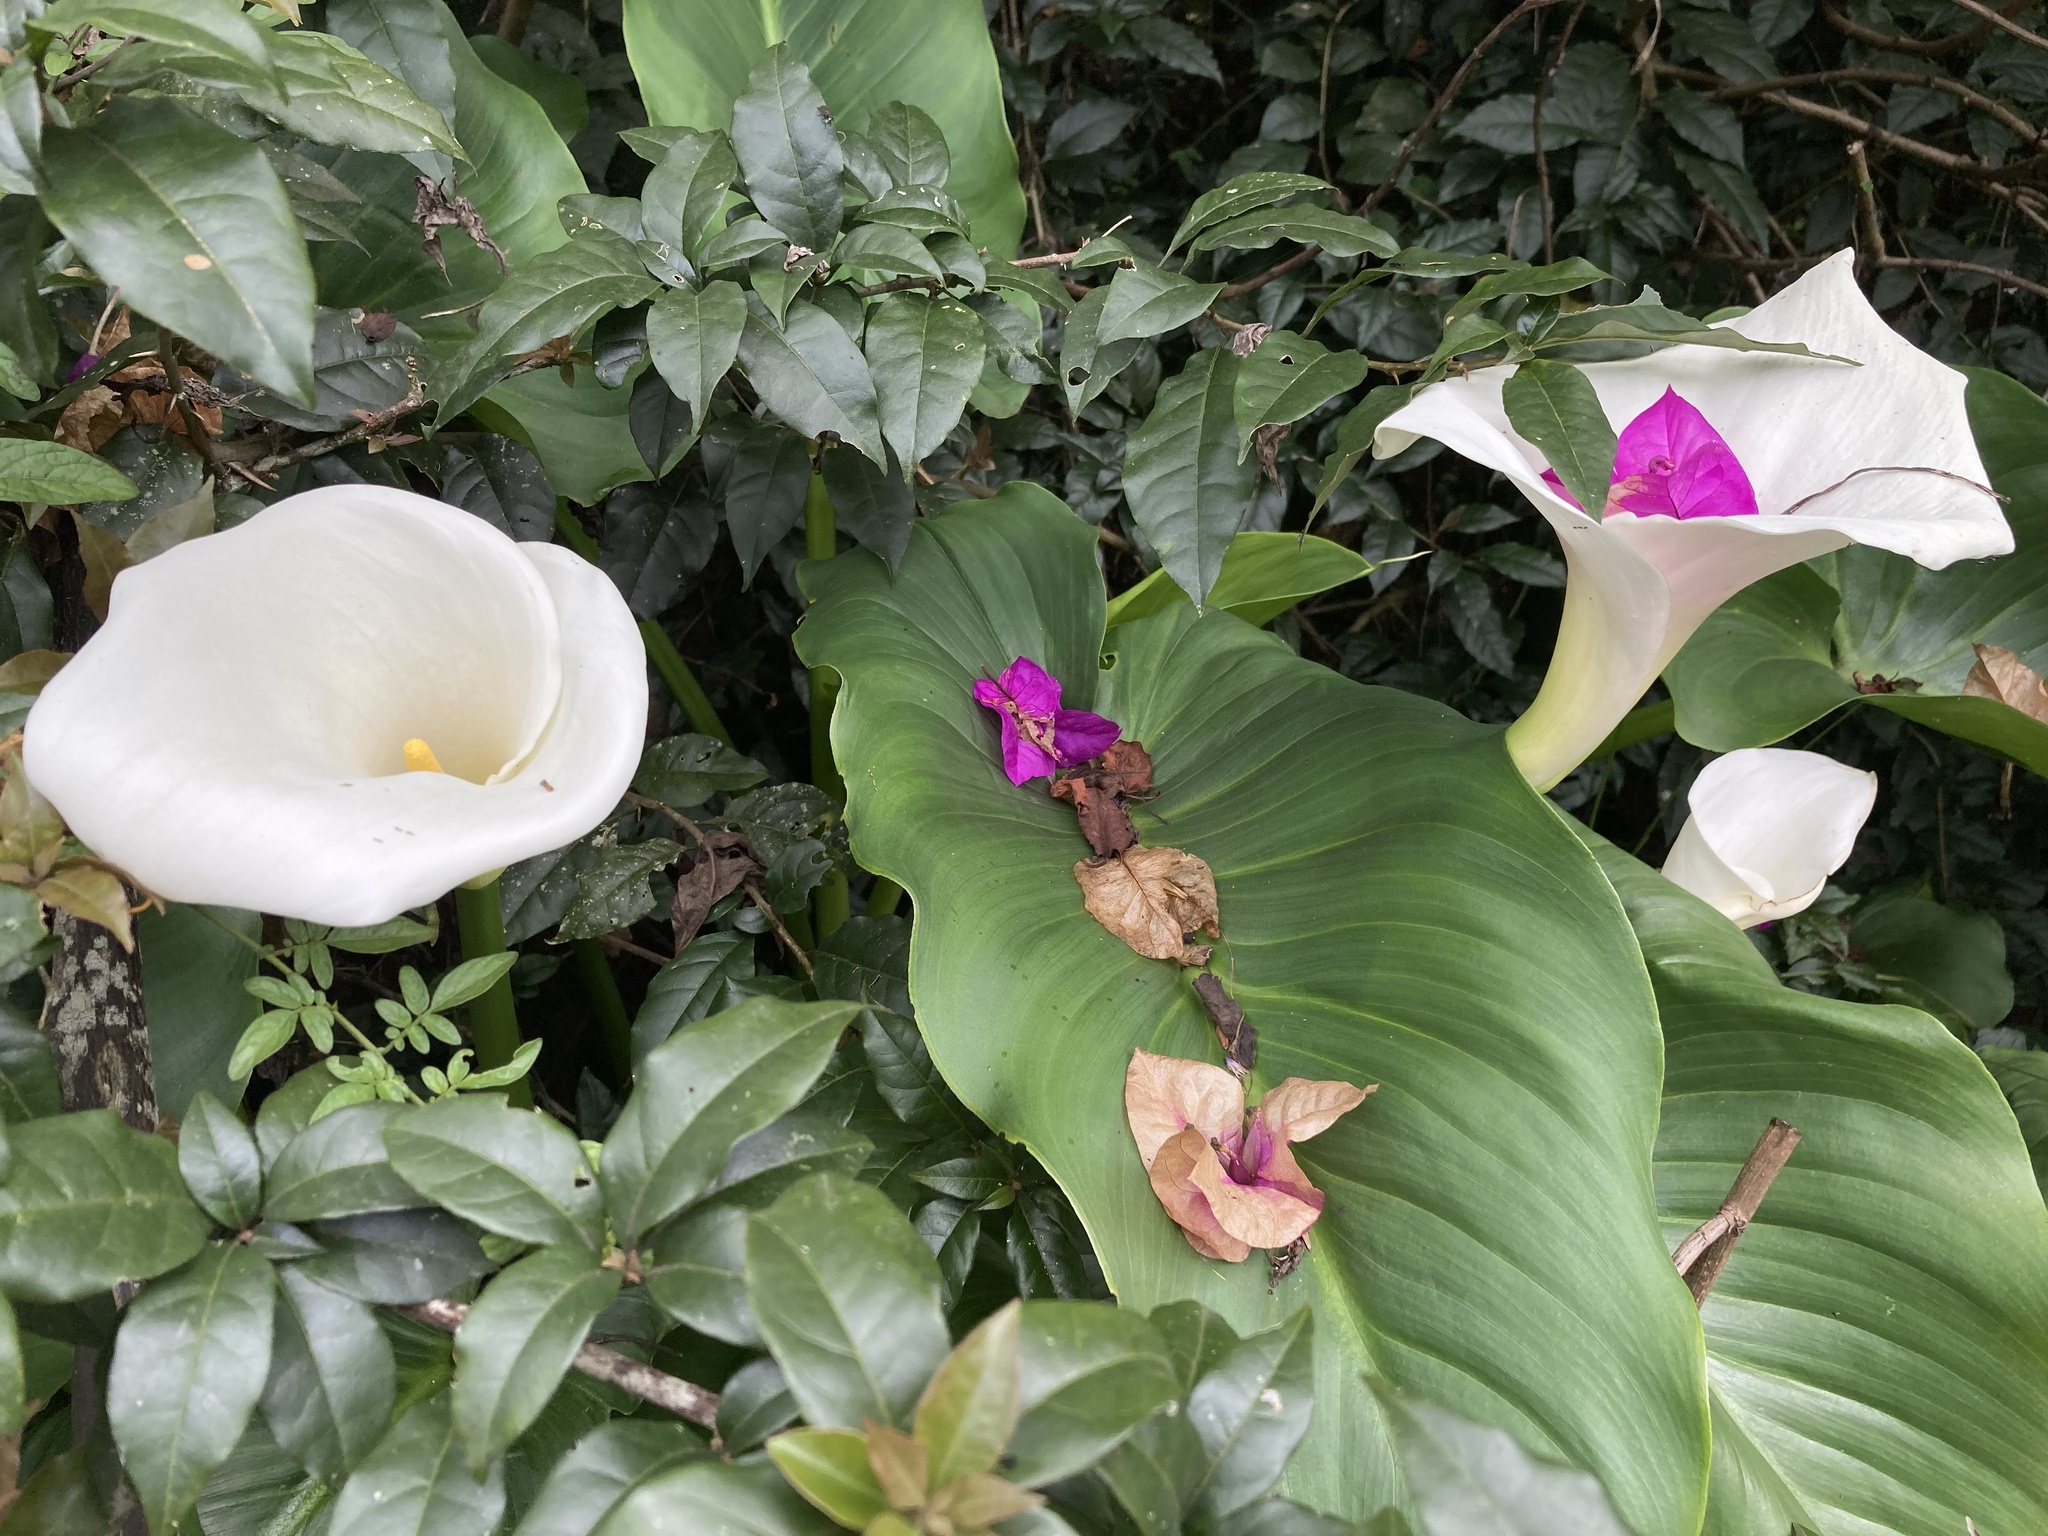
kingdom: Plantae
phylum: Tracheophyta
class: Liliopsida
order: Alismatales
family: Araceae
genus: Zantedeschia
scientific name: Zantedeschia aethiopica
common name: Altar-lily
